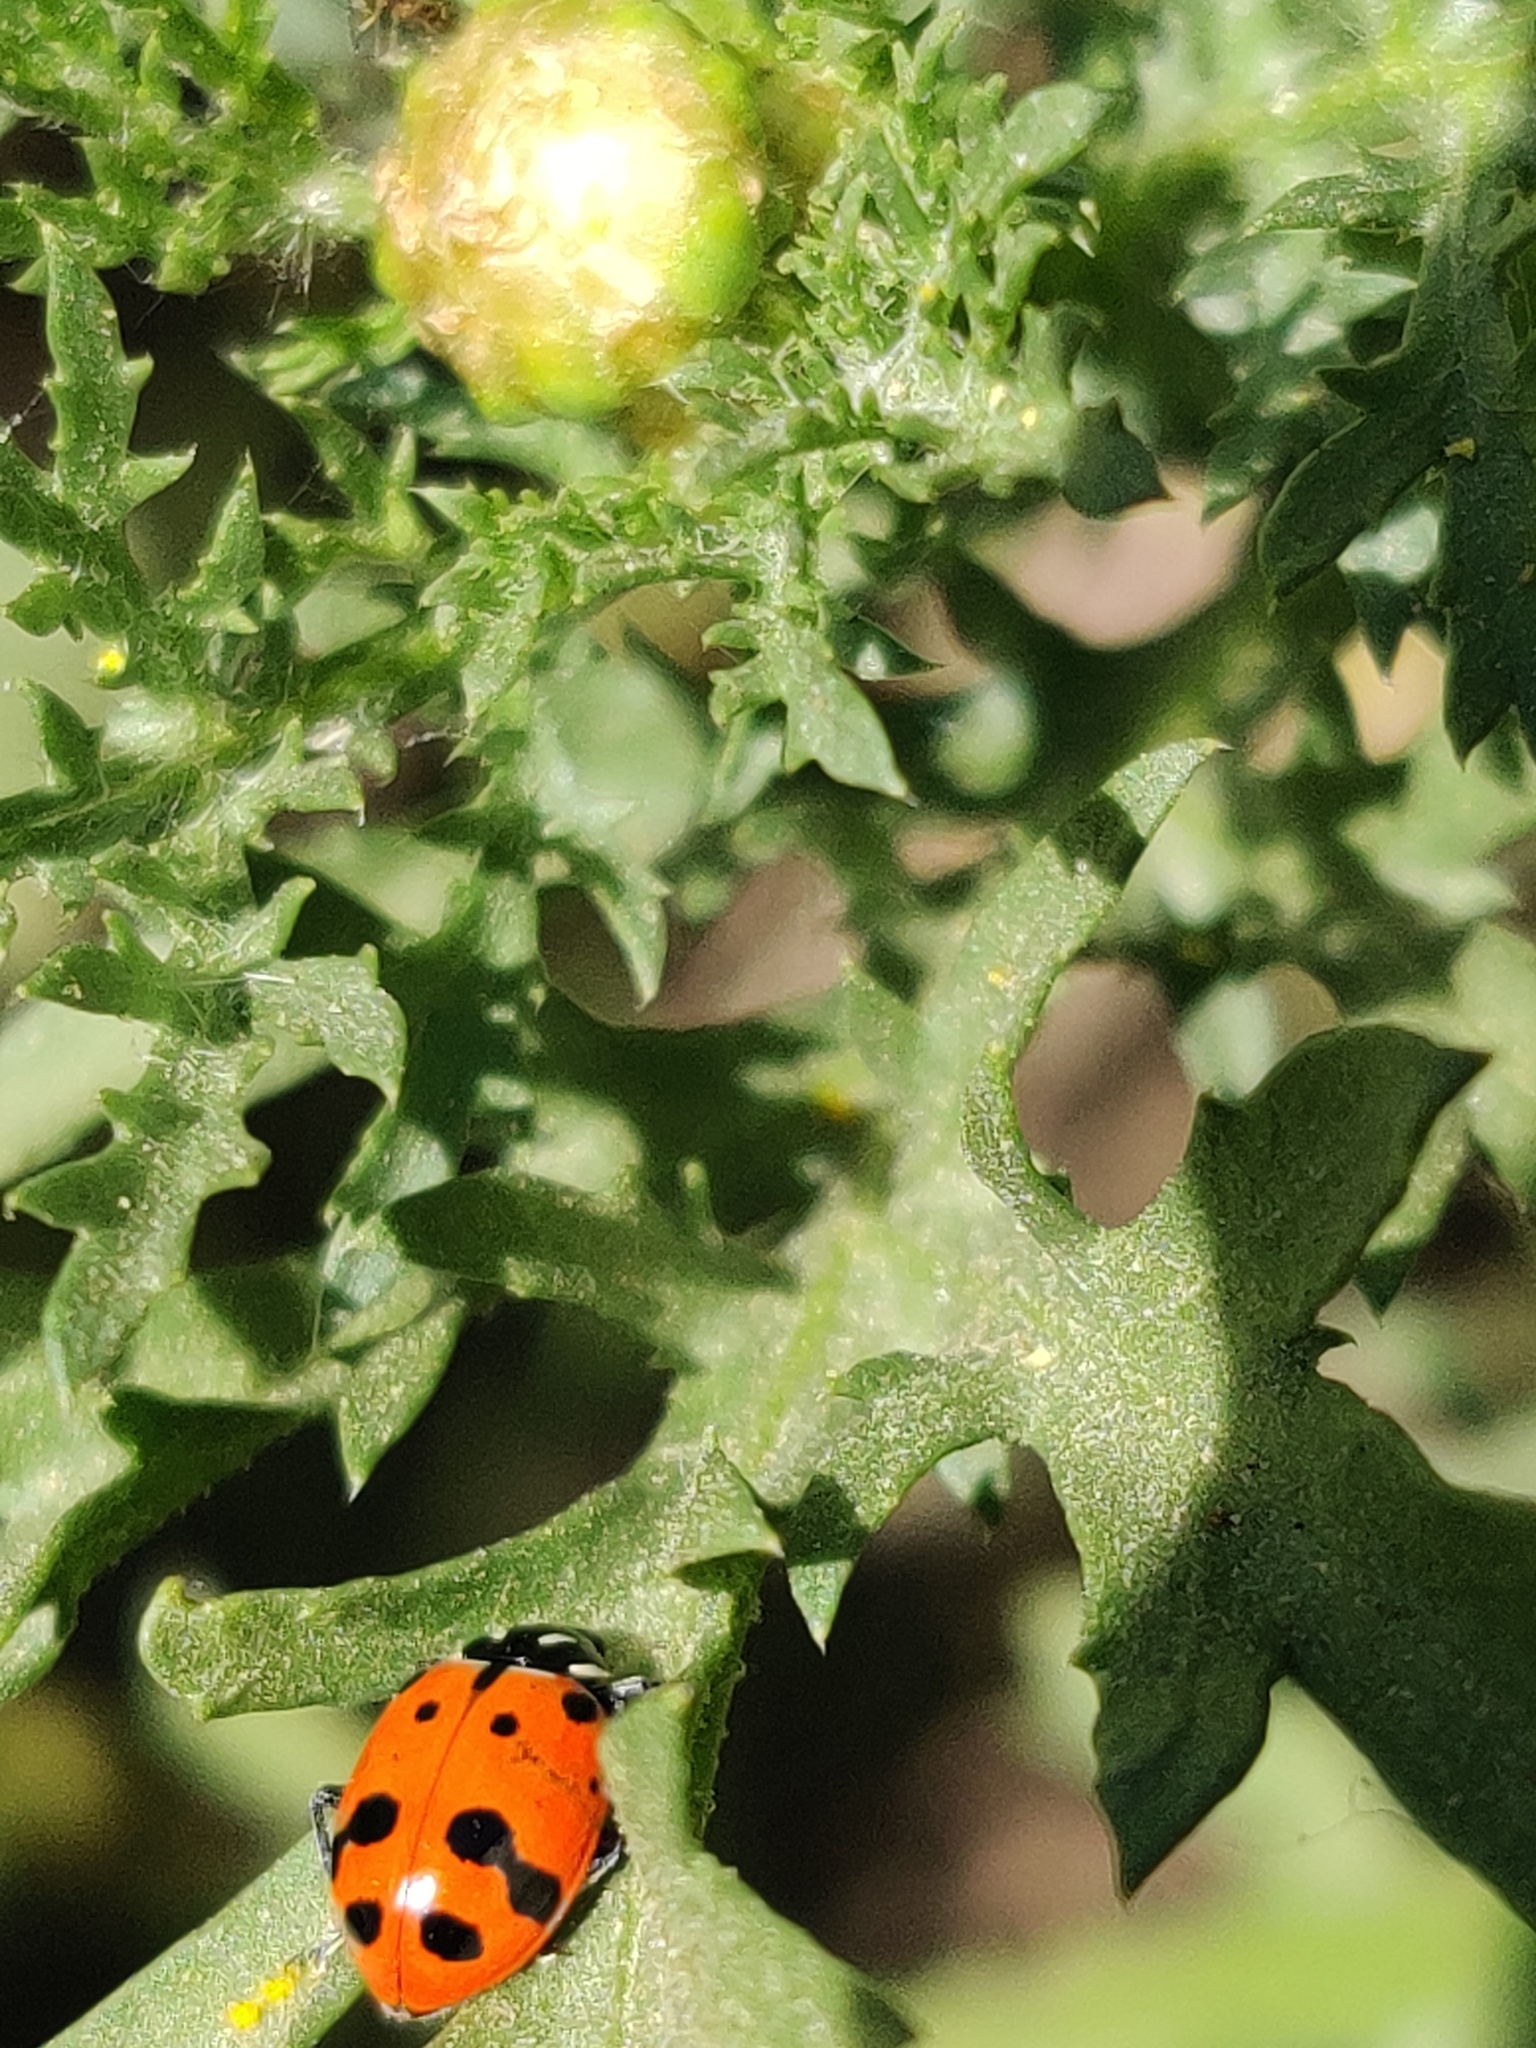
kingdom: Animalia
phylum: Arthropoda
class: Insecta
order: Coleoptera
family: Coccinellidae
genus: Hippodamia
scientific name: Hippodamia convergens
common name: Convergent lady beetle
